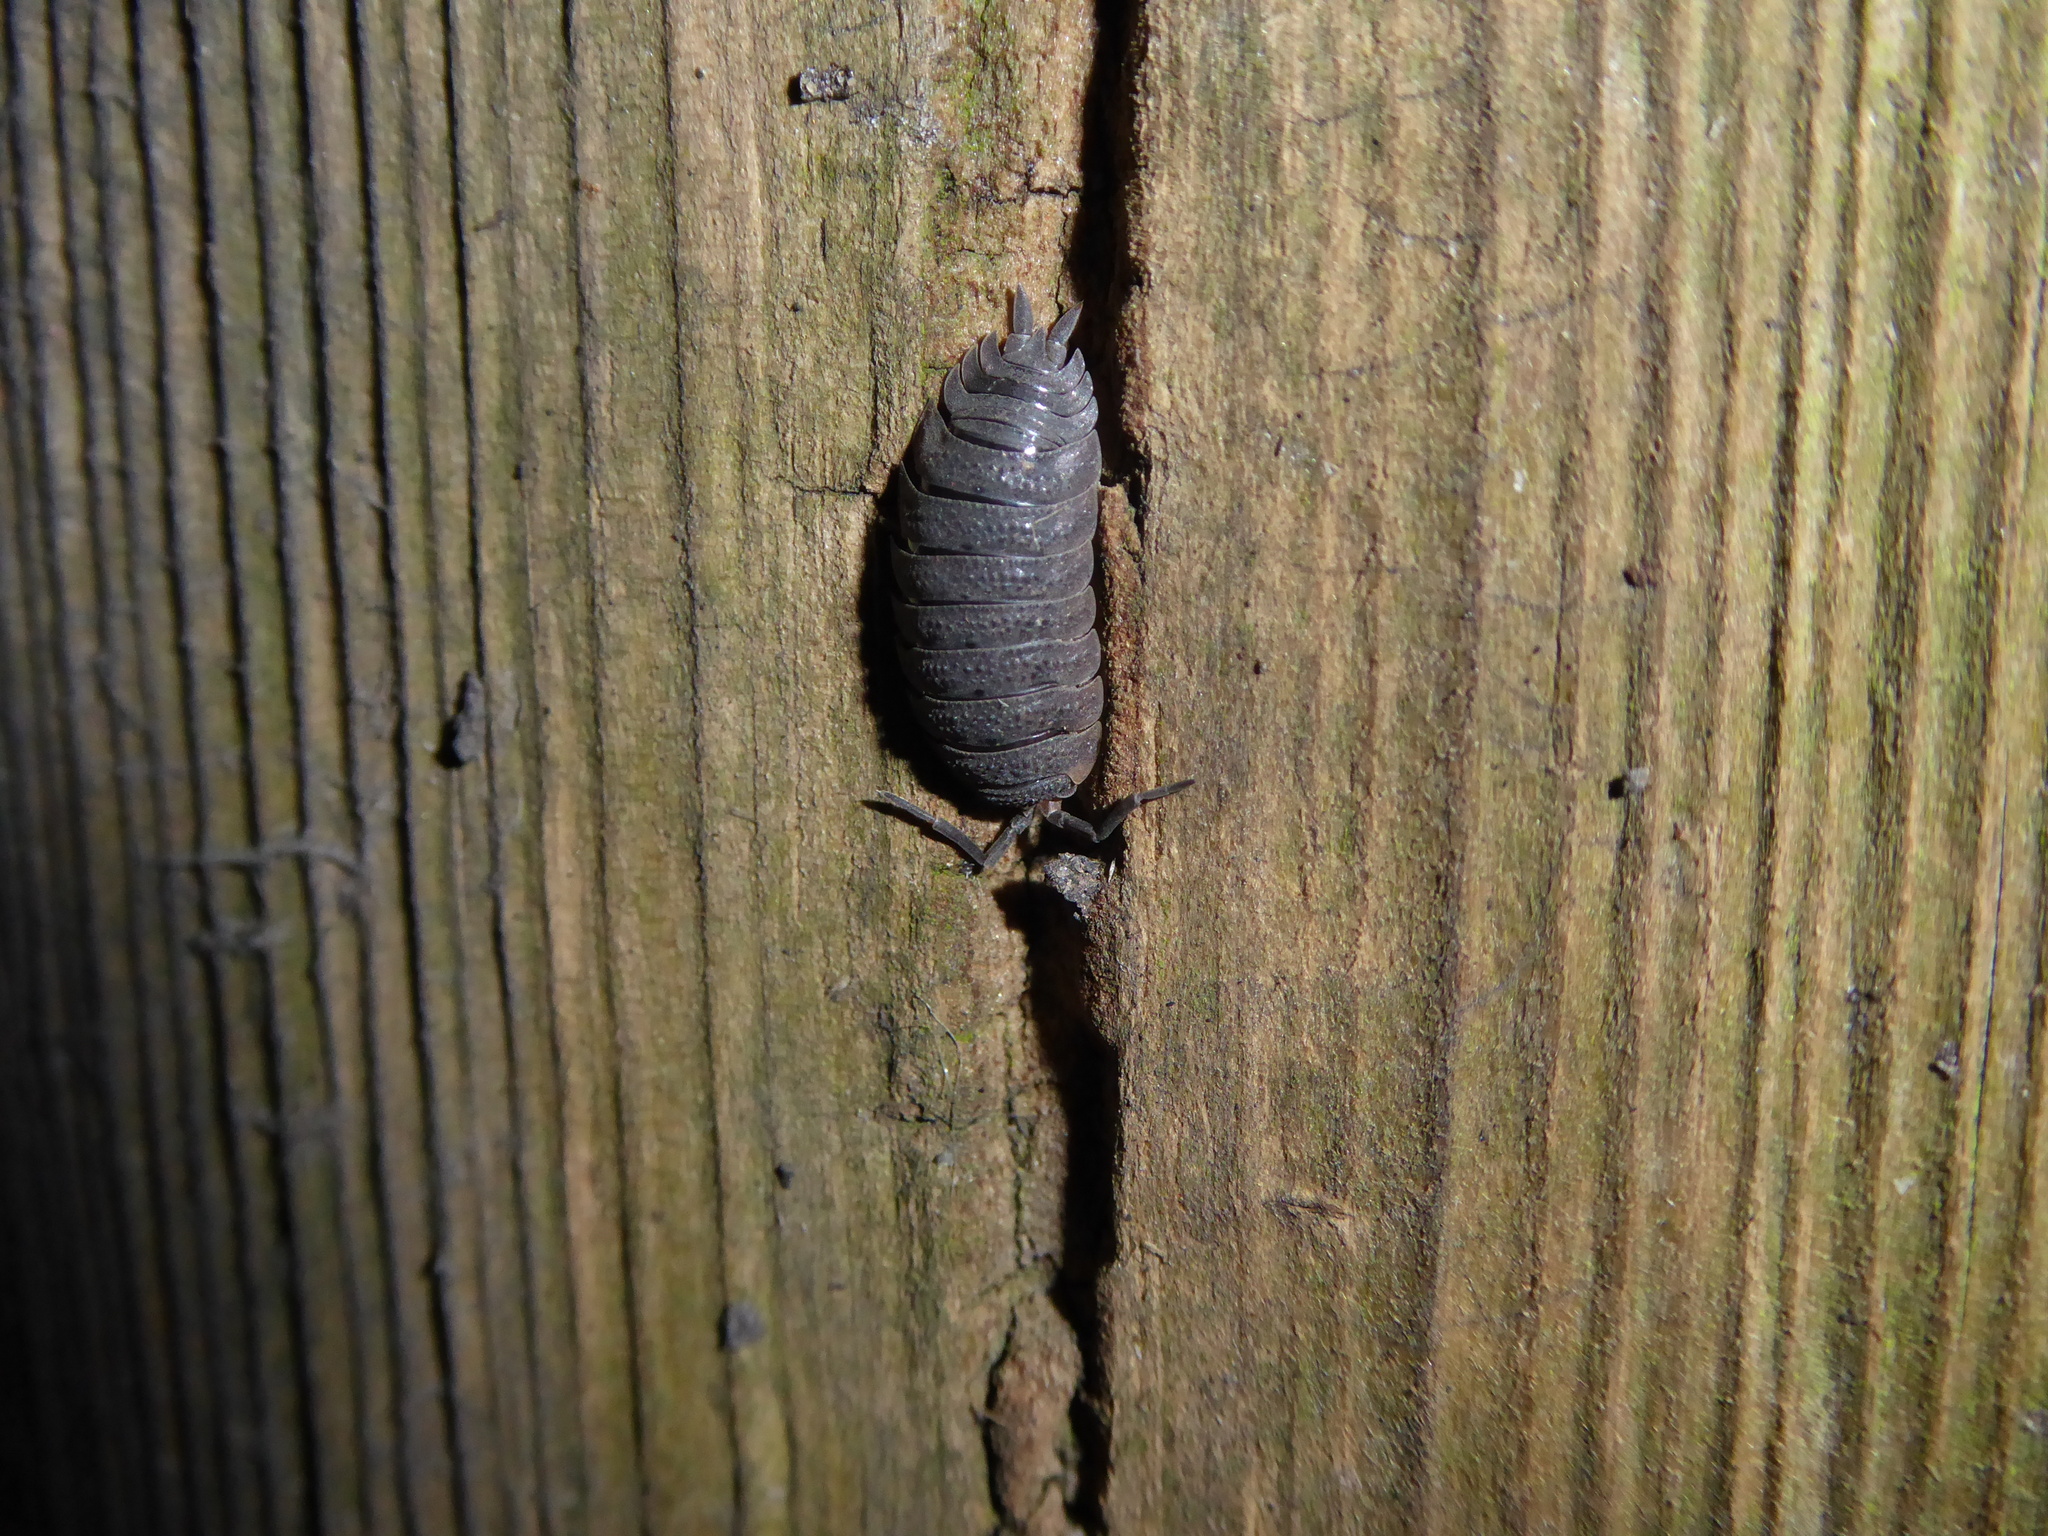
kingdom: Animalia
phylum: Arthropoda
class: Malacostraca
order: Isopoda
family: Porcellionidae
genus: Porcellio
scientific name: Porcellio scaber
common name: Common rough woodlouse
